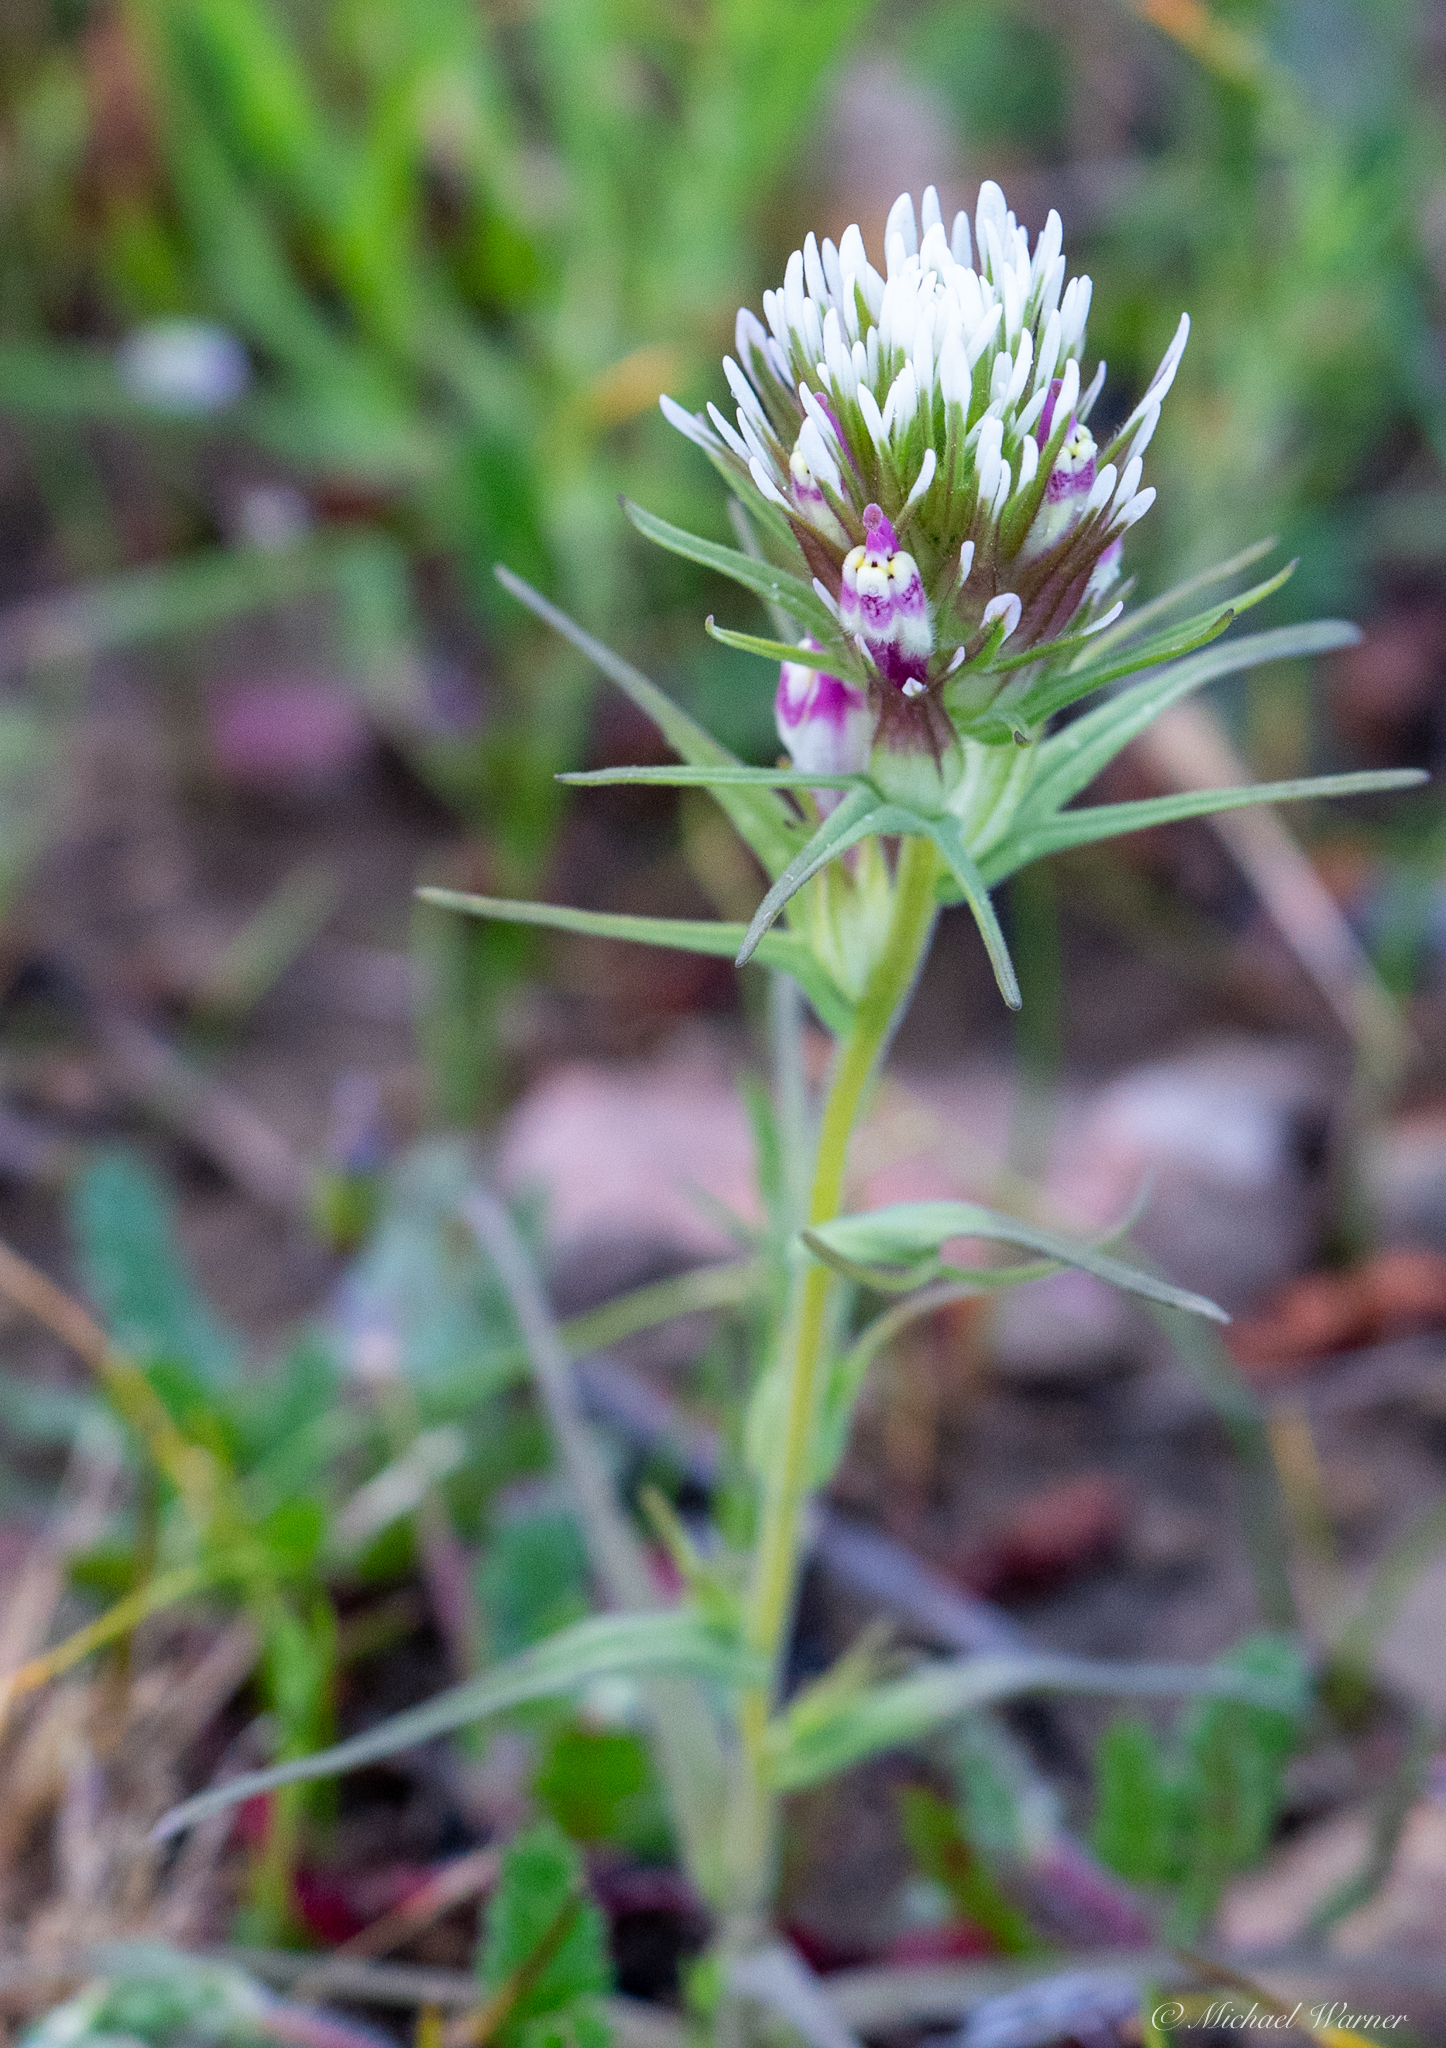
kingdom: Plantae
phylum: Tracheophyta
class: Magnoliopsida
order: Lamiales
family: Orobanchaceae
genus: Castilleja
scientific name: Castilleja densiflora
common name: Dense-flower indian paintbrush
